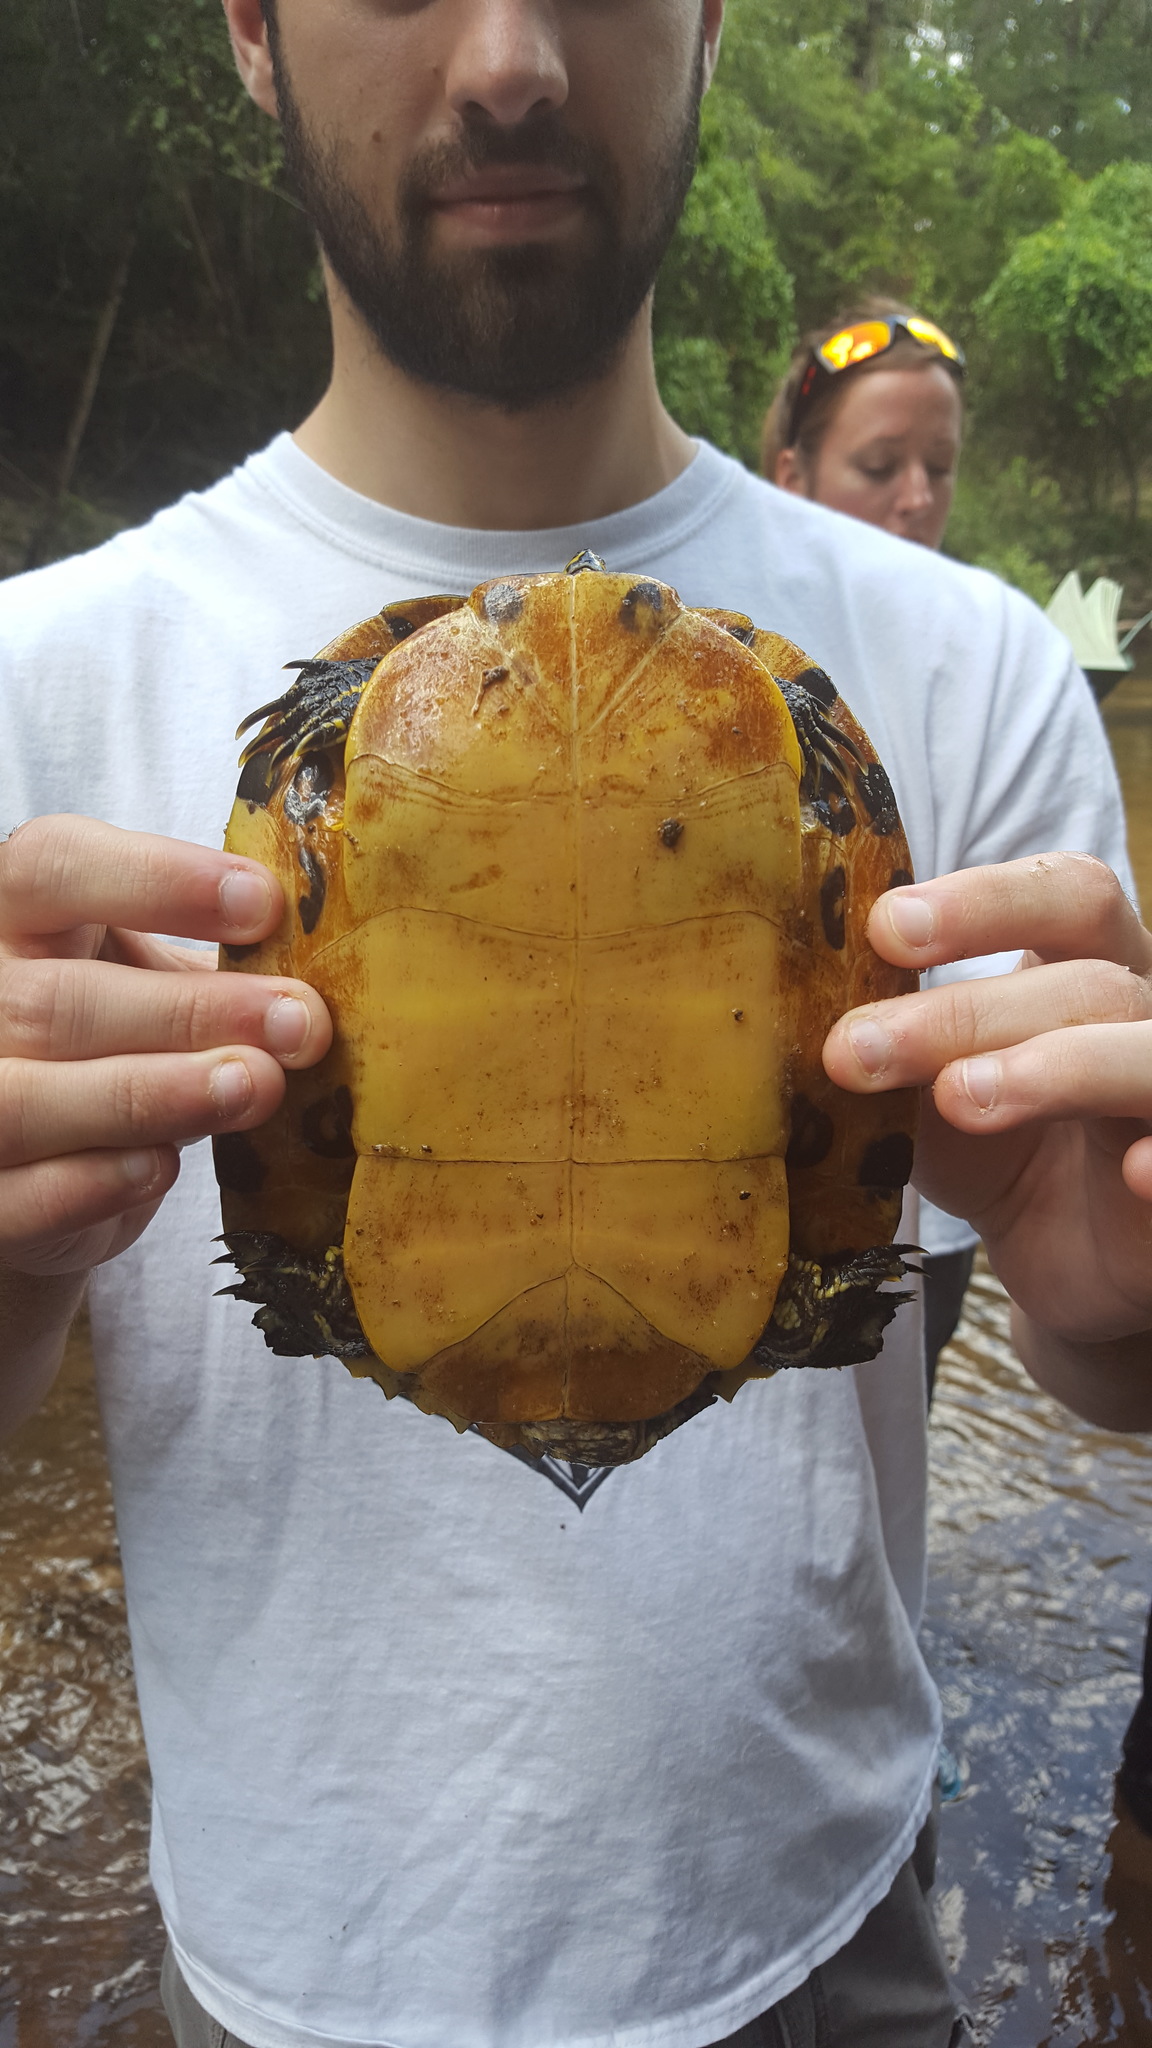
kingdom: Animalia
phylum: Chordata
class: Testudines
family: Emydidae
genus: Trachemys
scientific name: Trachemys scripta
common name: Slider
